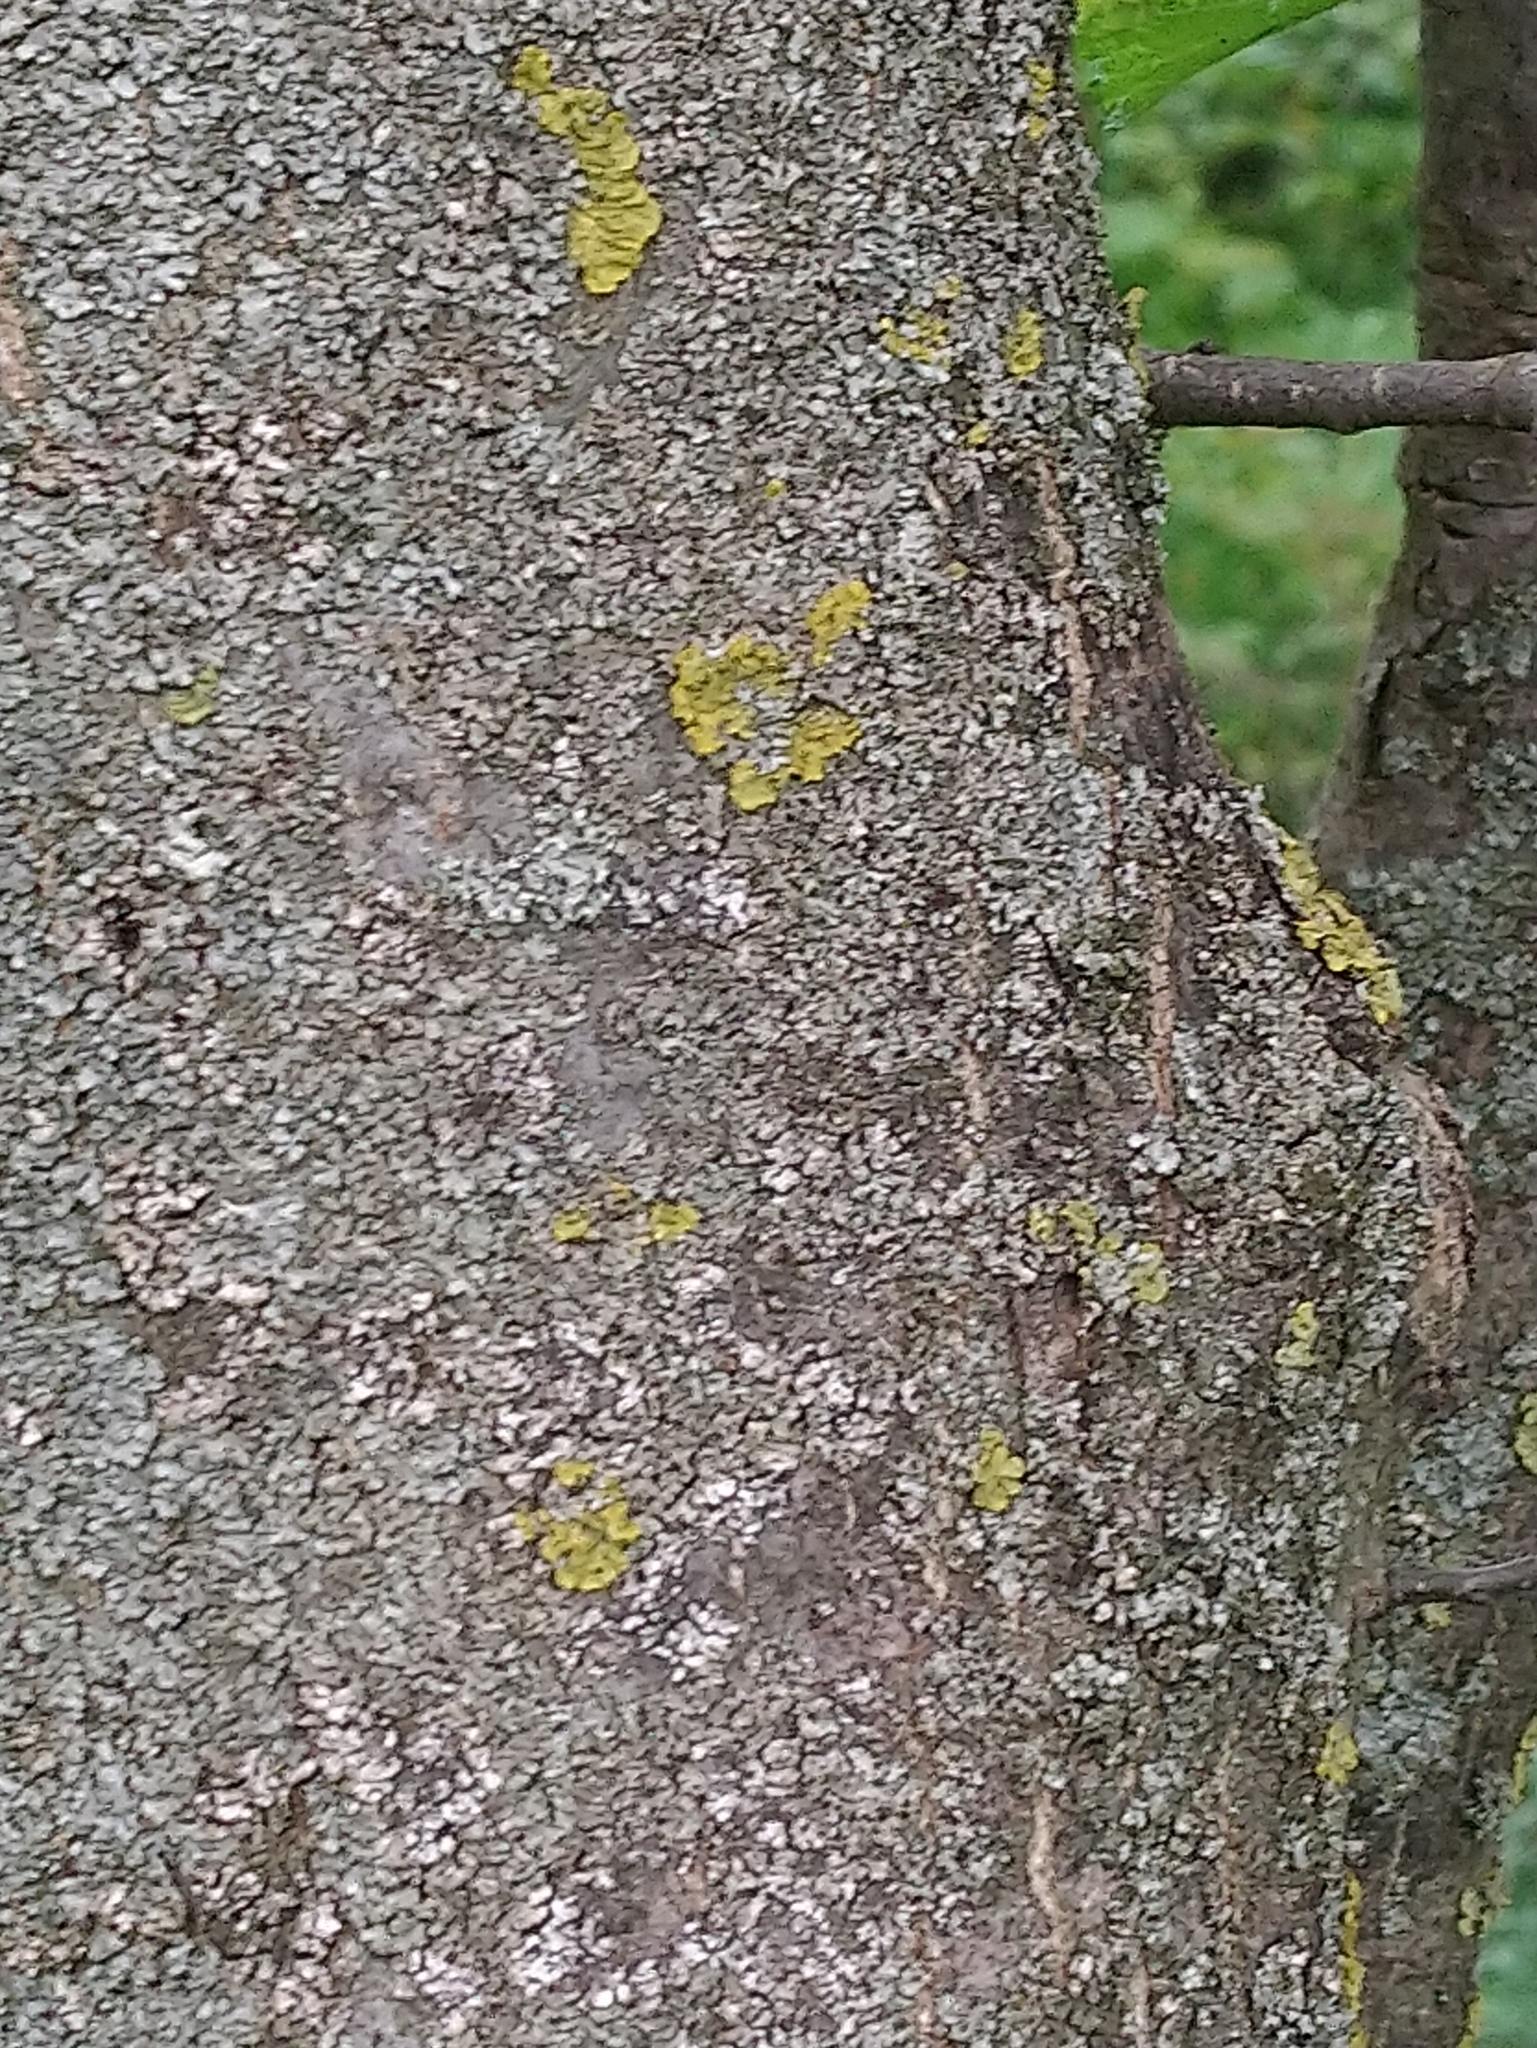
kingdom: Plantae
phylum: Tracheophyta
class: Magnoliopsida
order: Rosales
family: Ulmaceae
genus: Ulmus
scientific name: Ulmus minor
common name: Small-leaved elm
